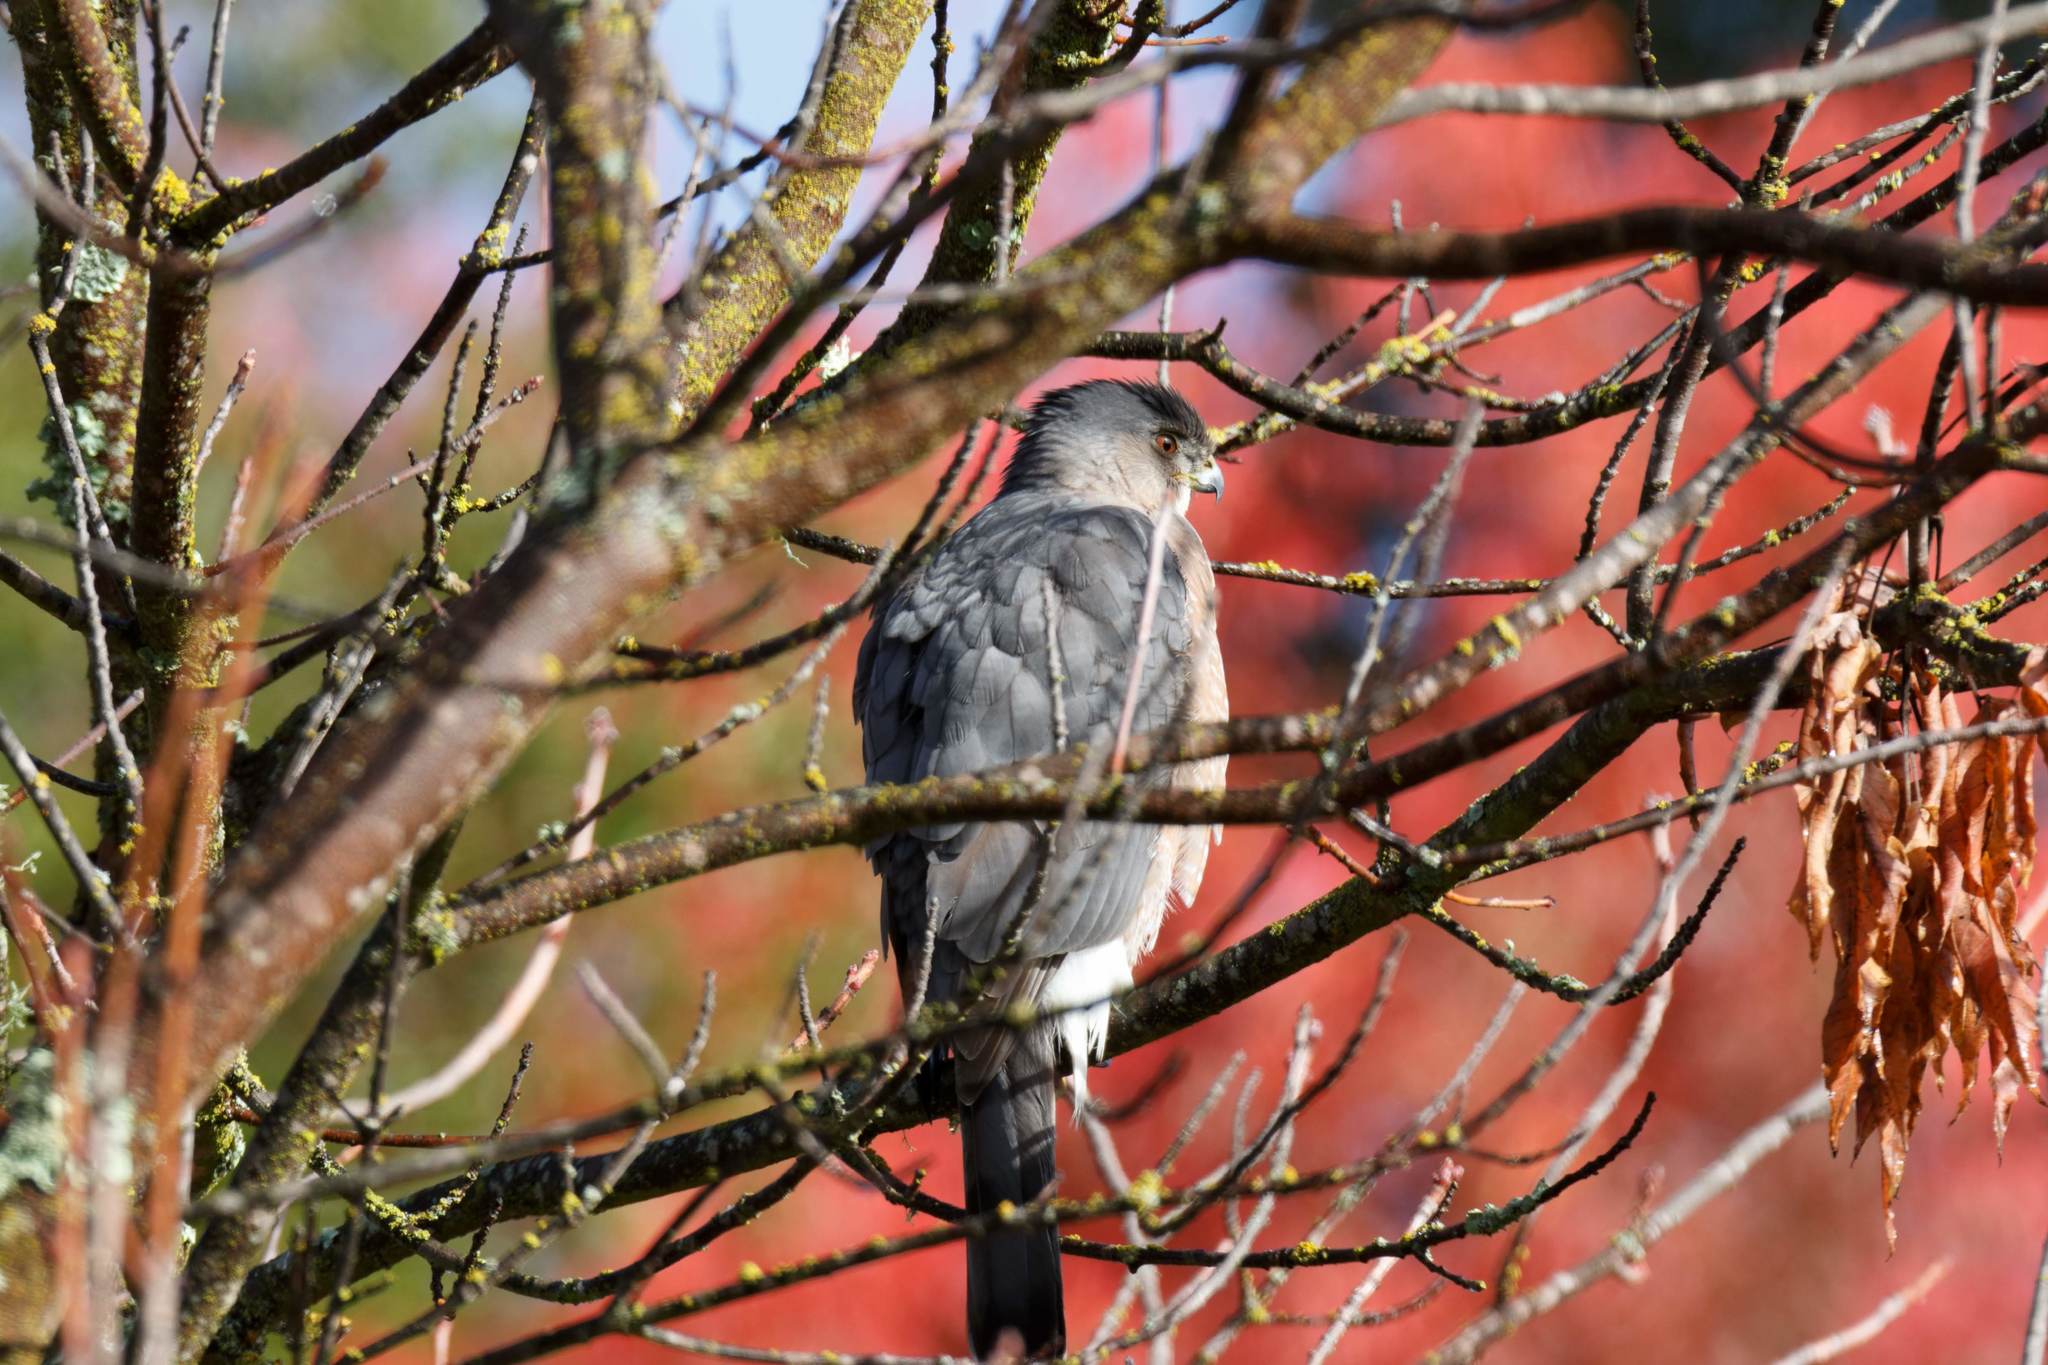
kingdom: Animalia
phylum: Chordata
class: Aves
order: Accipitriformes
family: Accipitridae
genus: Accipiter
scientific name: Accipiter cooperii
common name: Cooper's hawk
